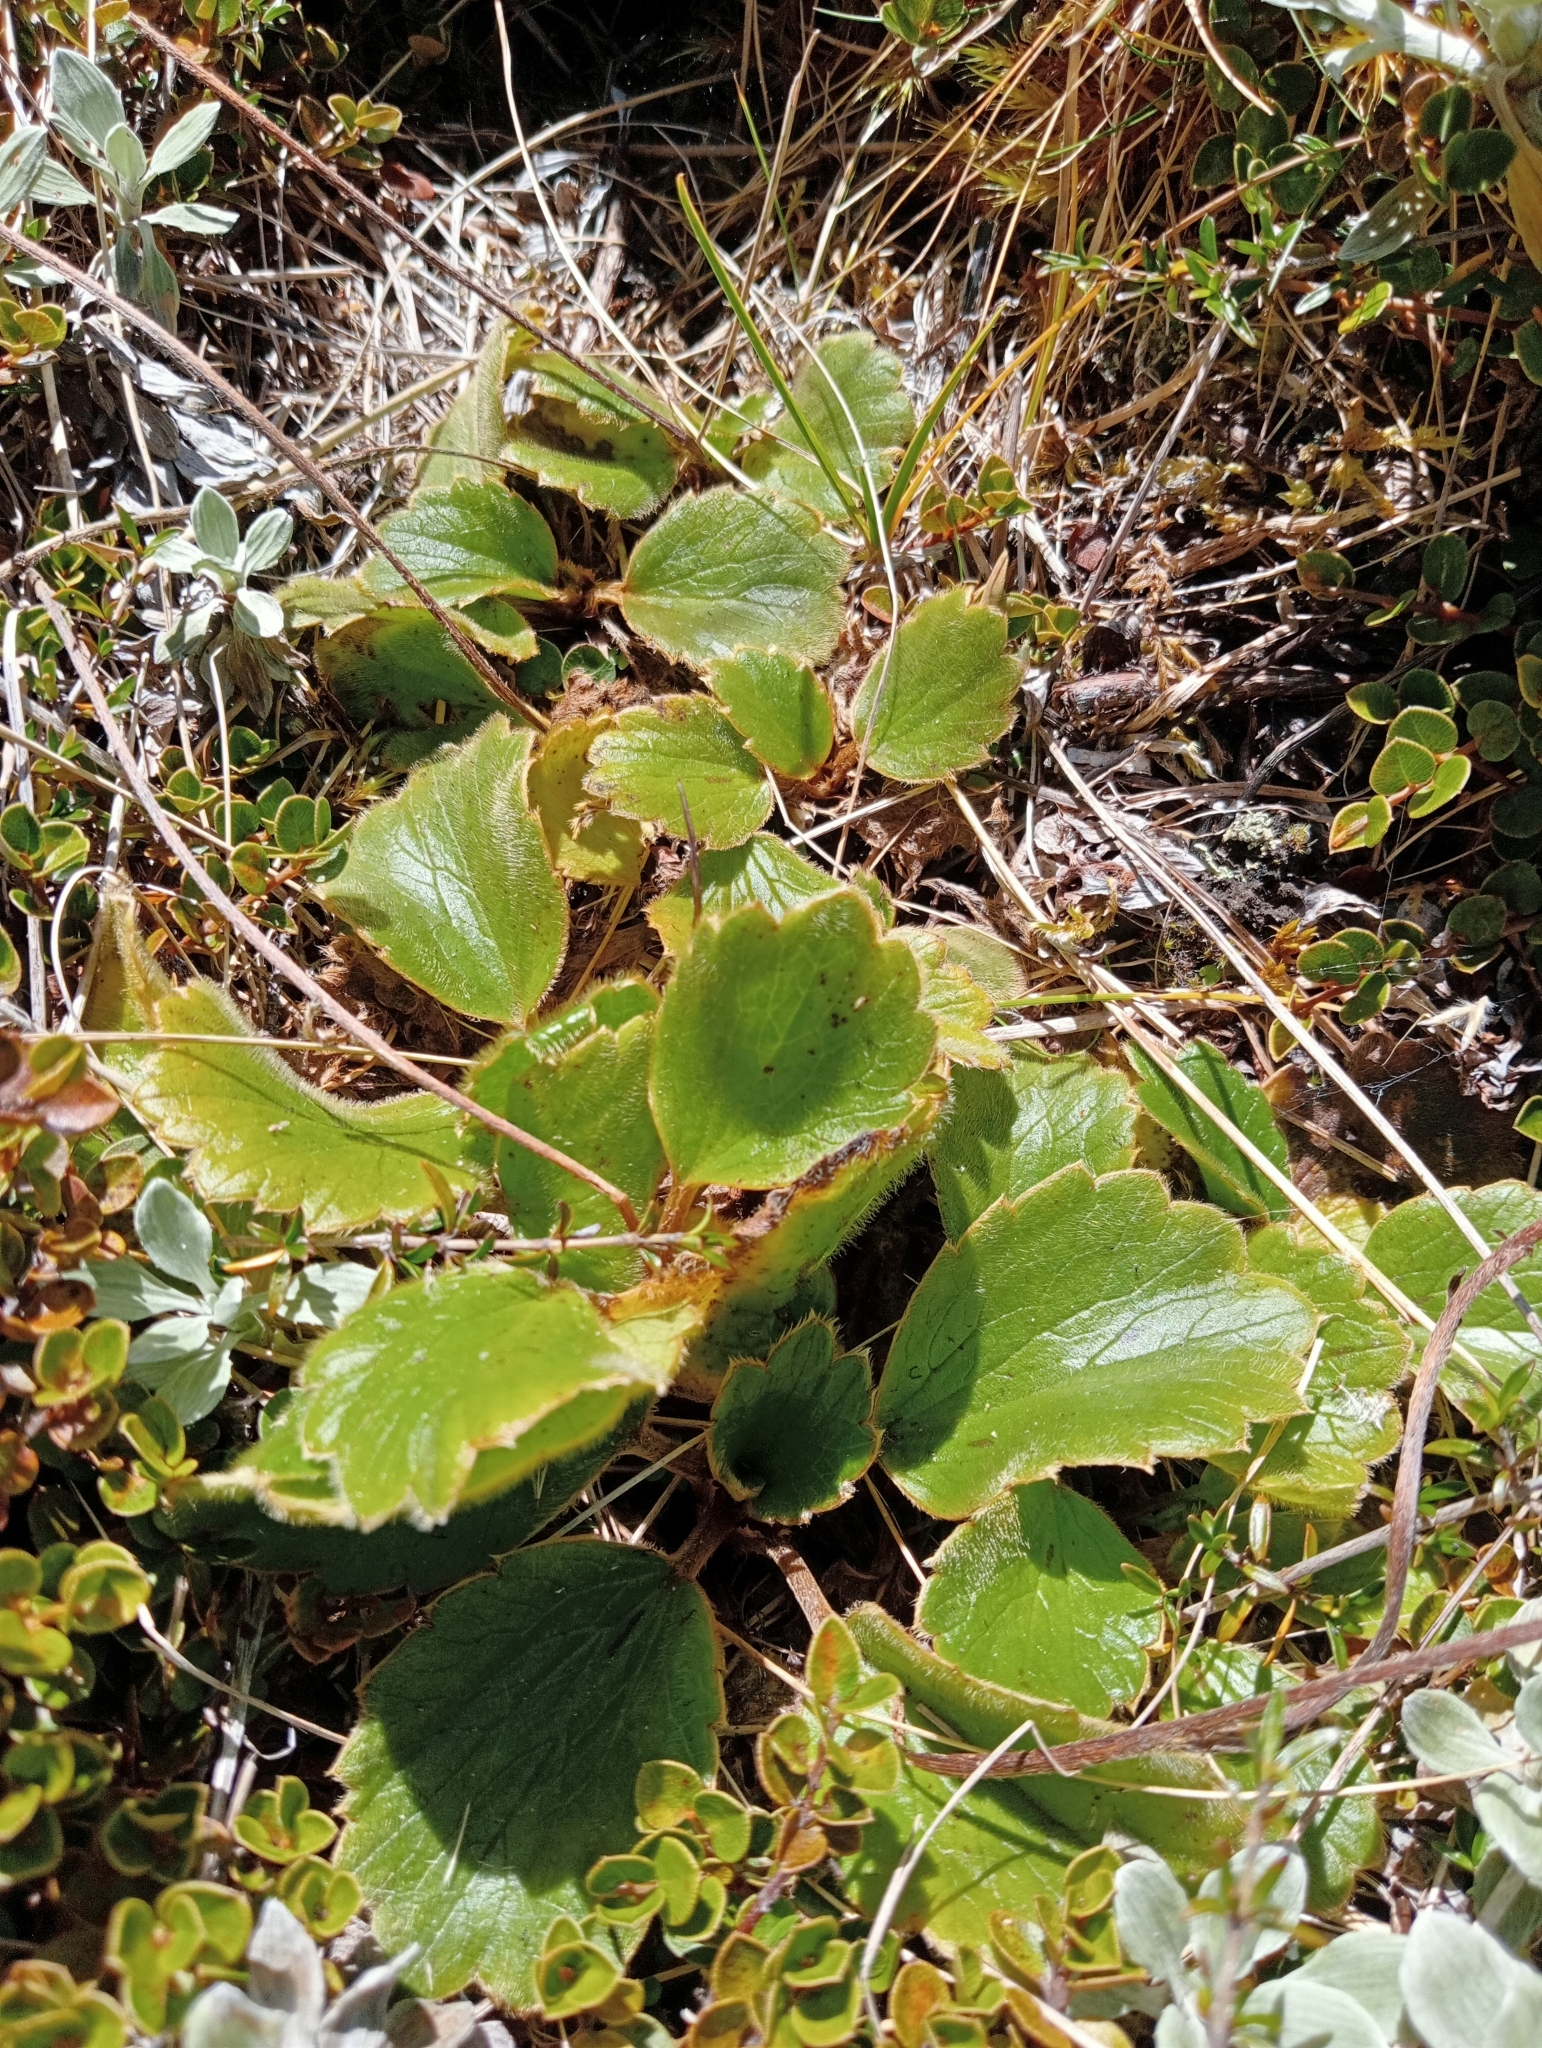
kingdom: Plantae
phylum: Tracheophyta
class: Magnoliopsida
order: Ranunculales
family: Ranunculaceae
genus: Ranunculus
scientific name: Ranunculus insignis
